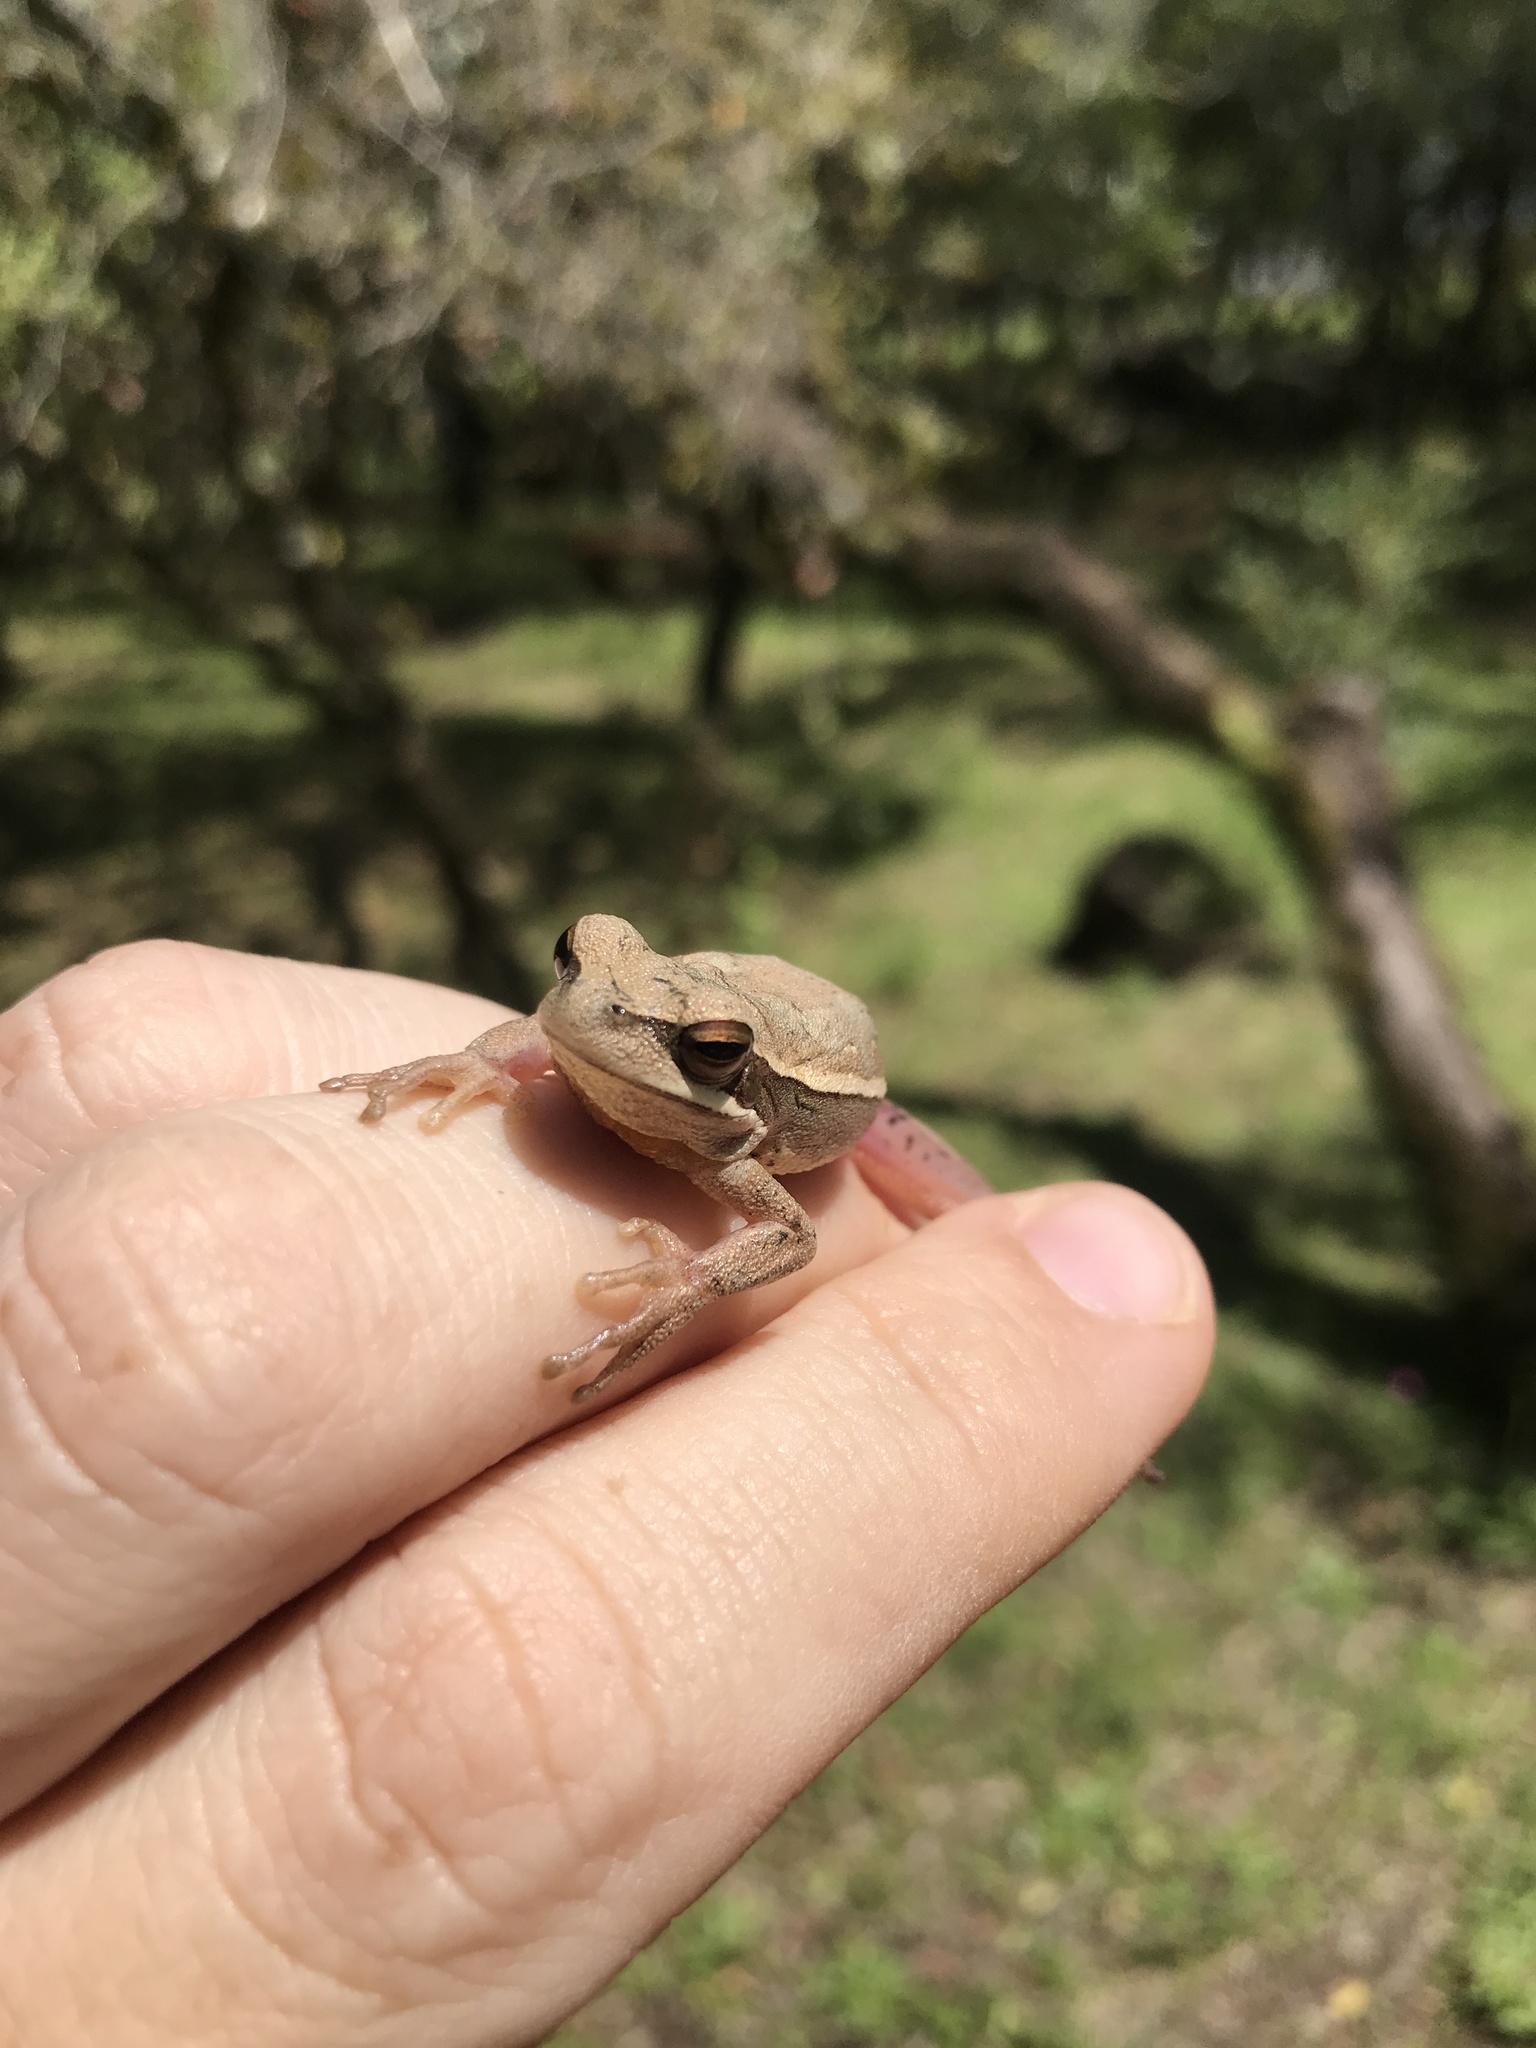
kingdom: Animalia
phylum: Chordata
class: Amphibia
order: Anura
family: Hylidae
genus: Boana
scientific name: Boana pulchella
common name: Montevideo treefrog
